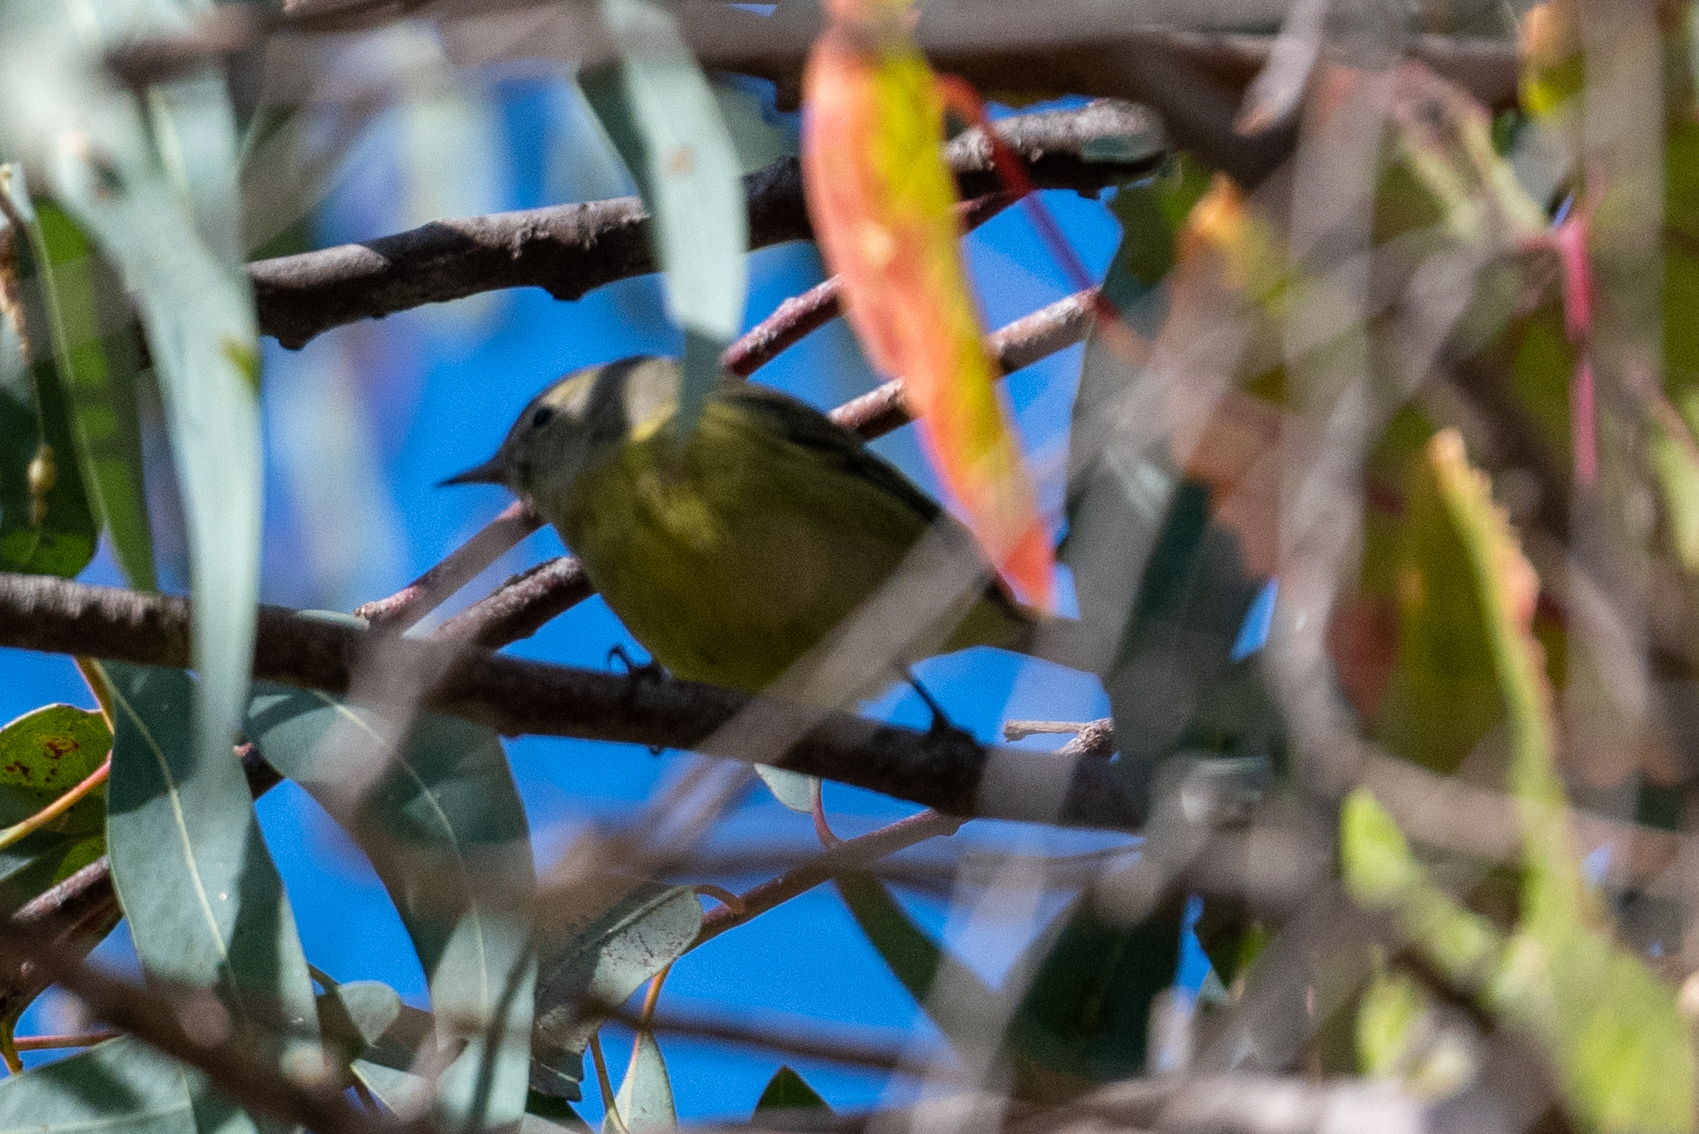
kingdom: Animalia
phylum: Chordata
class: Aves
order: Passeriformes
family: Parulidae
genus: Leiothlypis
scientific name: Leiothlypis celata
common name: Orange-crowned warbler
